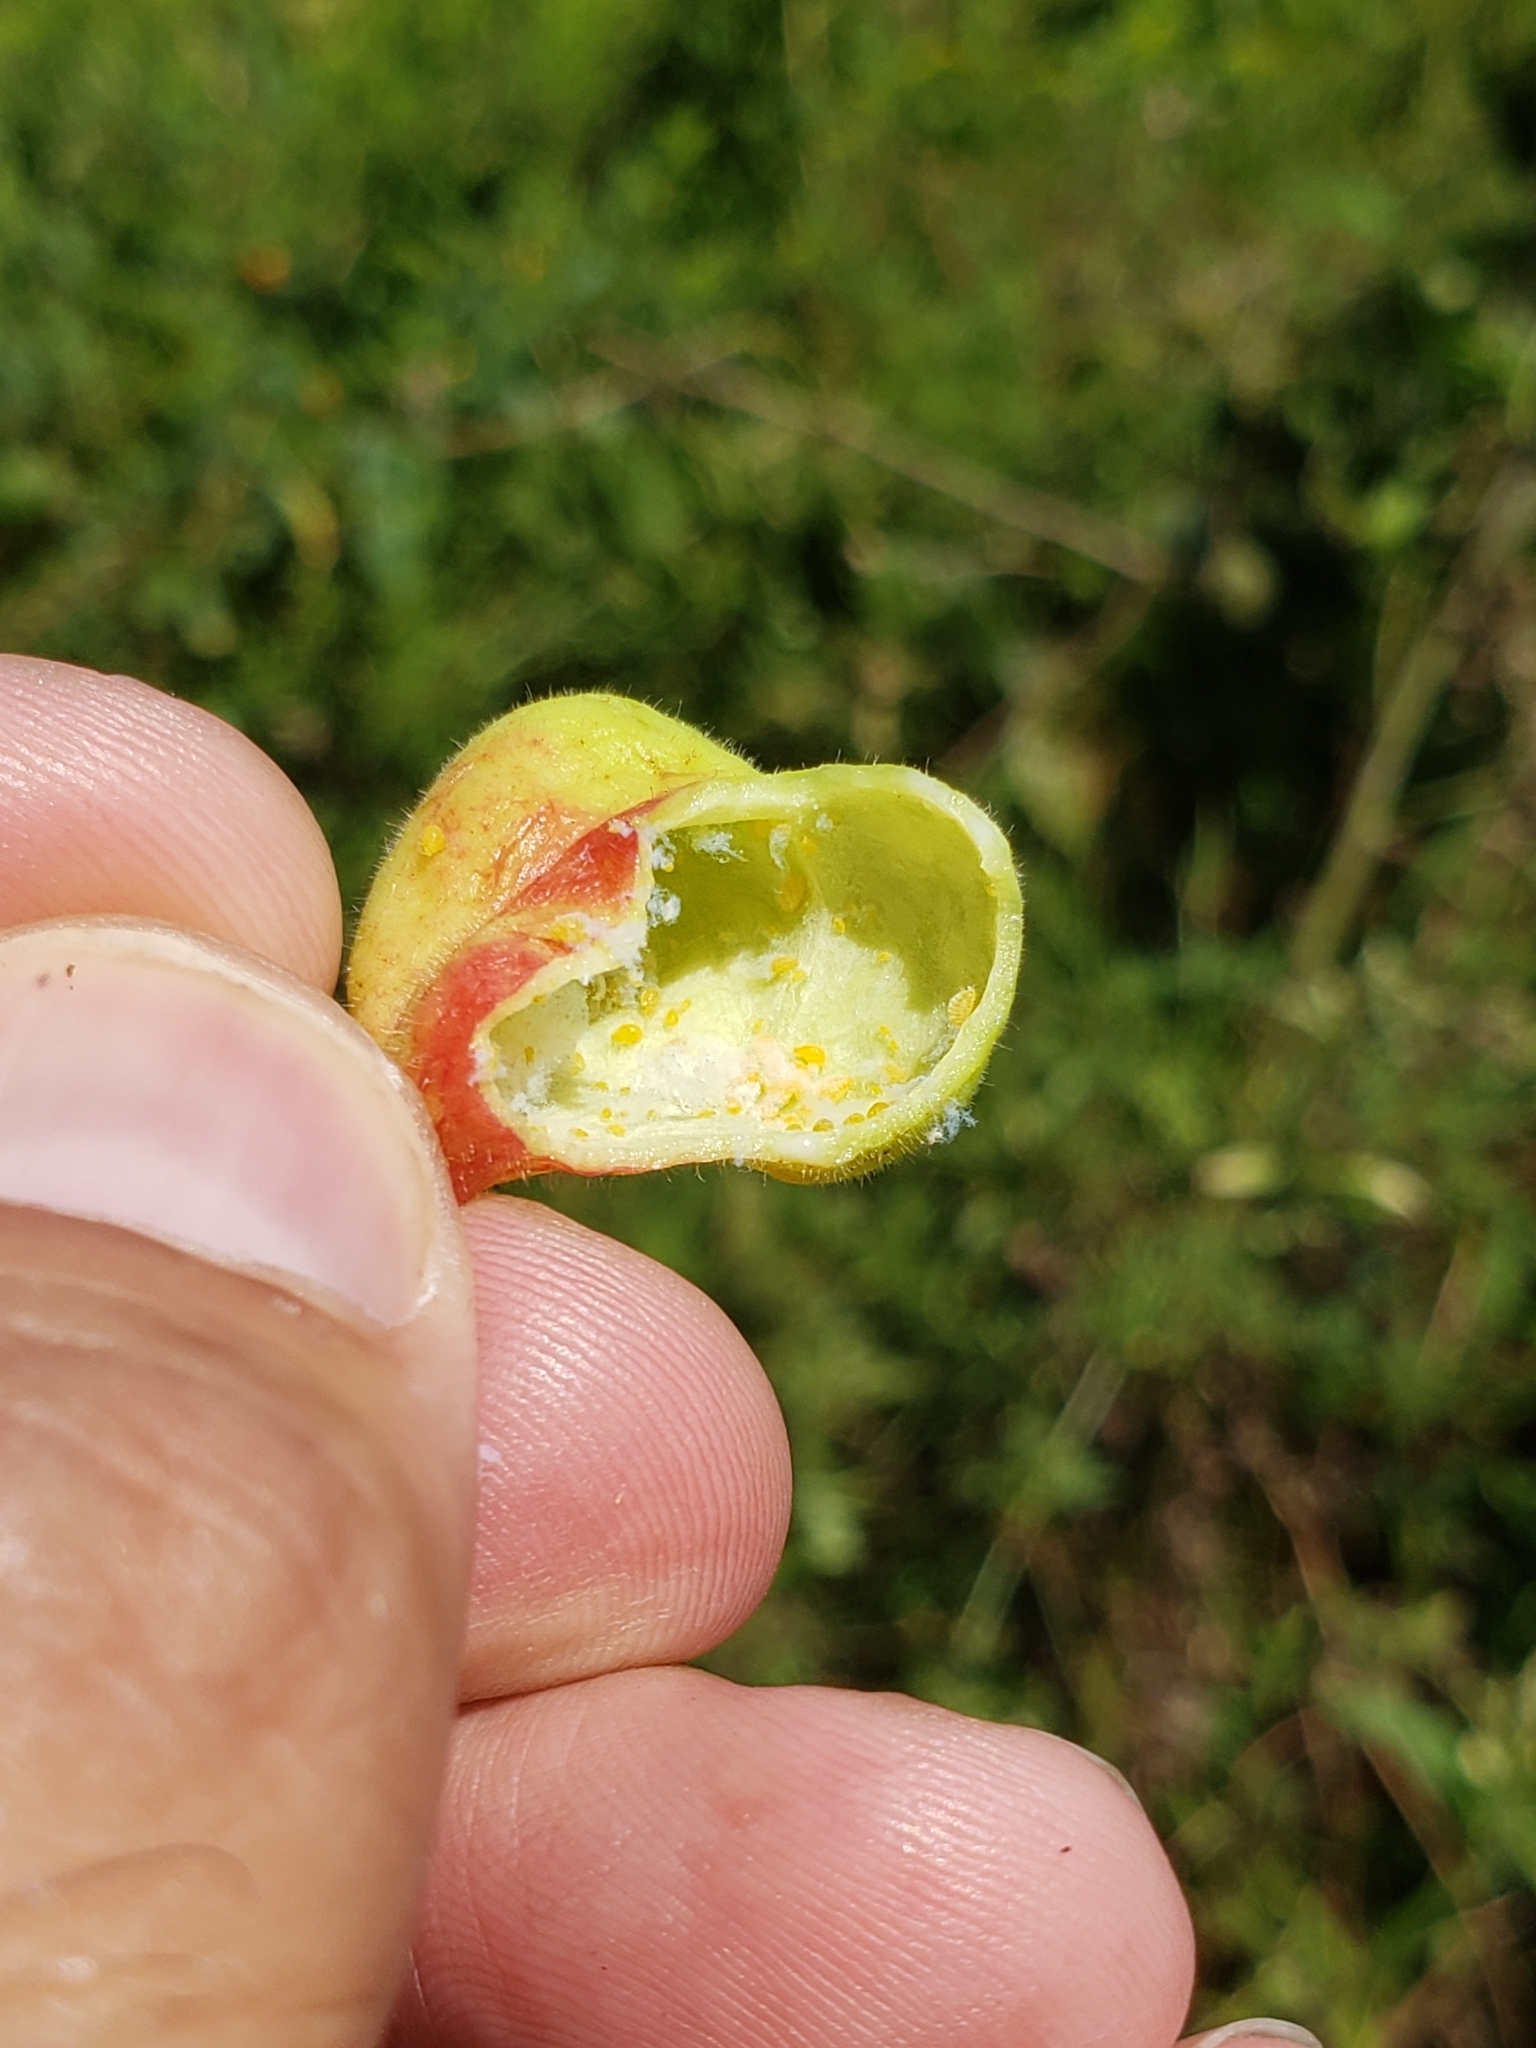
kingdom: Animalia
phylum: Arthropoda
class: Insecta
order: Hemiptera
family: Aphididae
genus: Melaphis
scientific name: Melaphis rhois
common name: Sumac gall aphid
